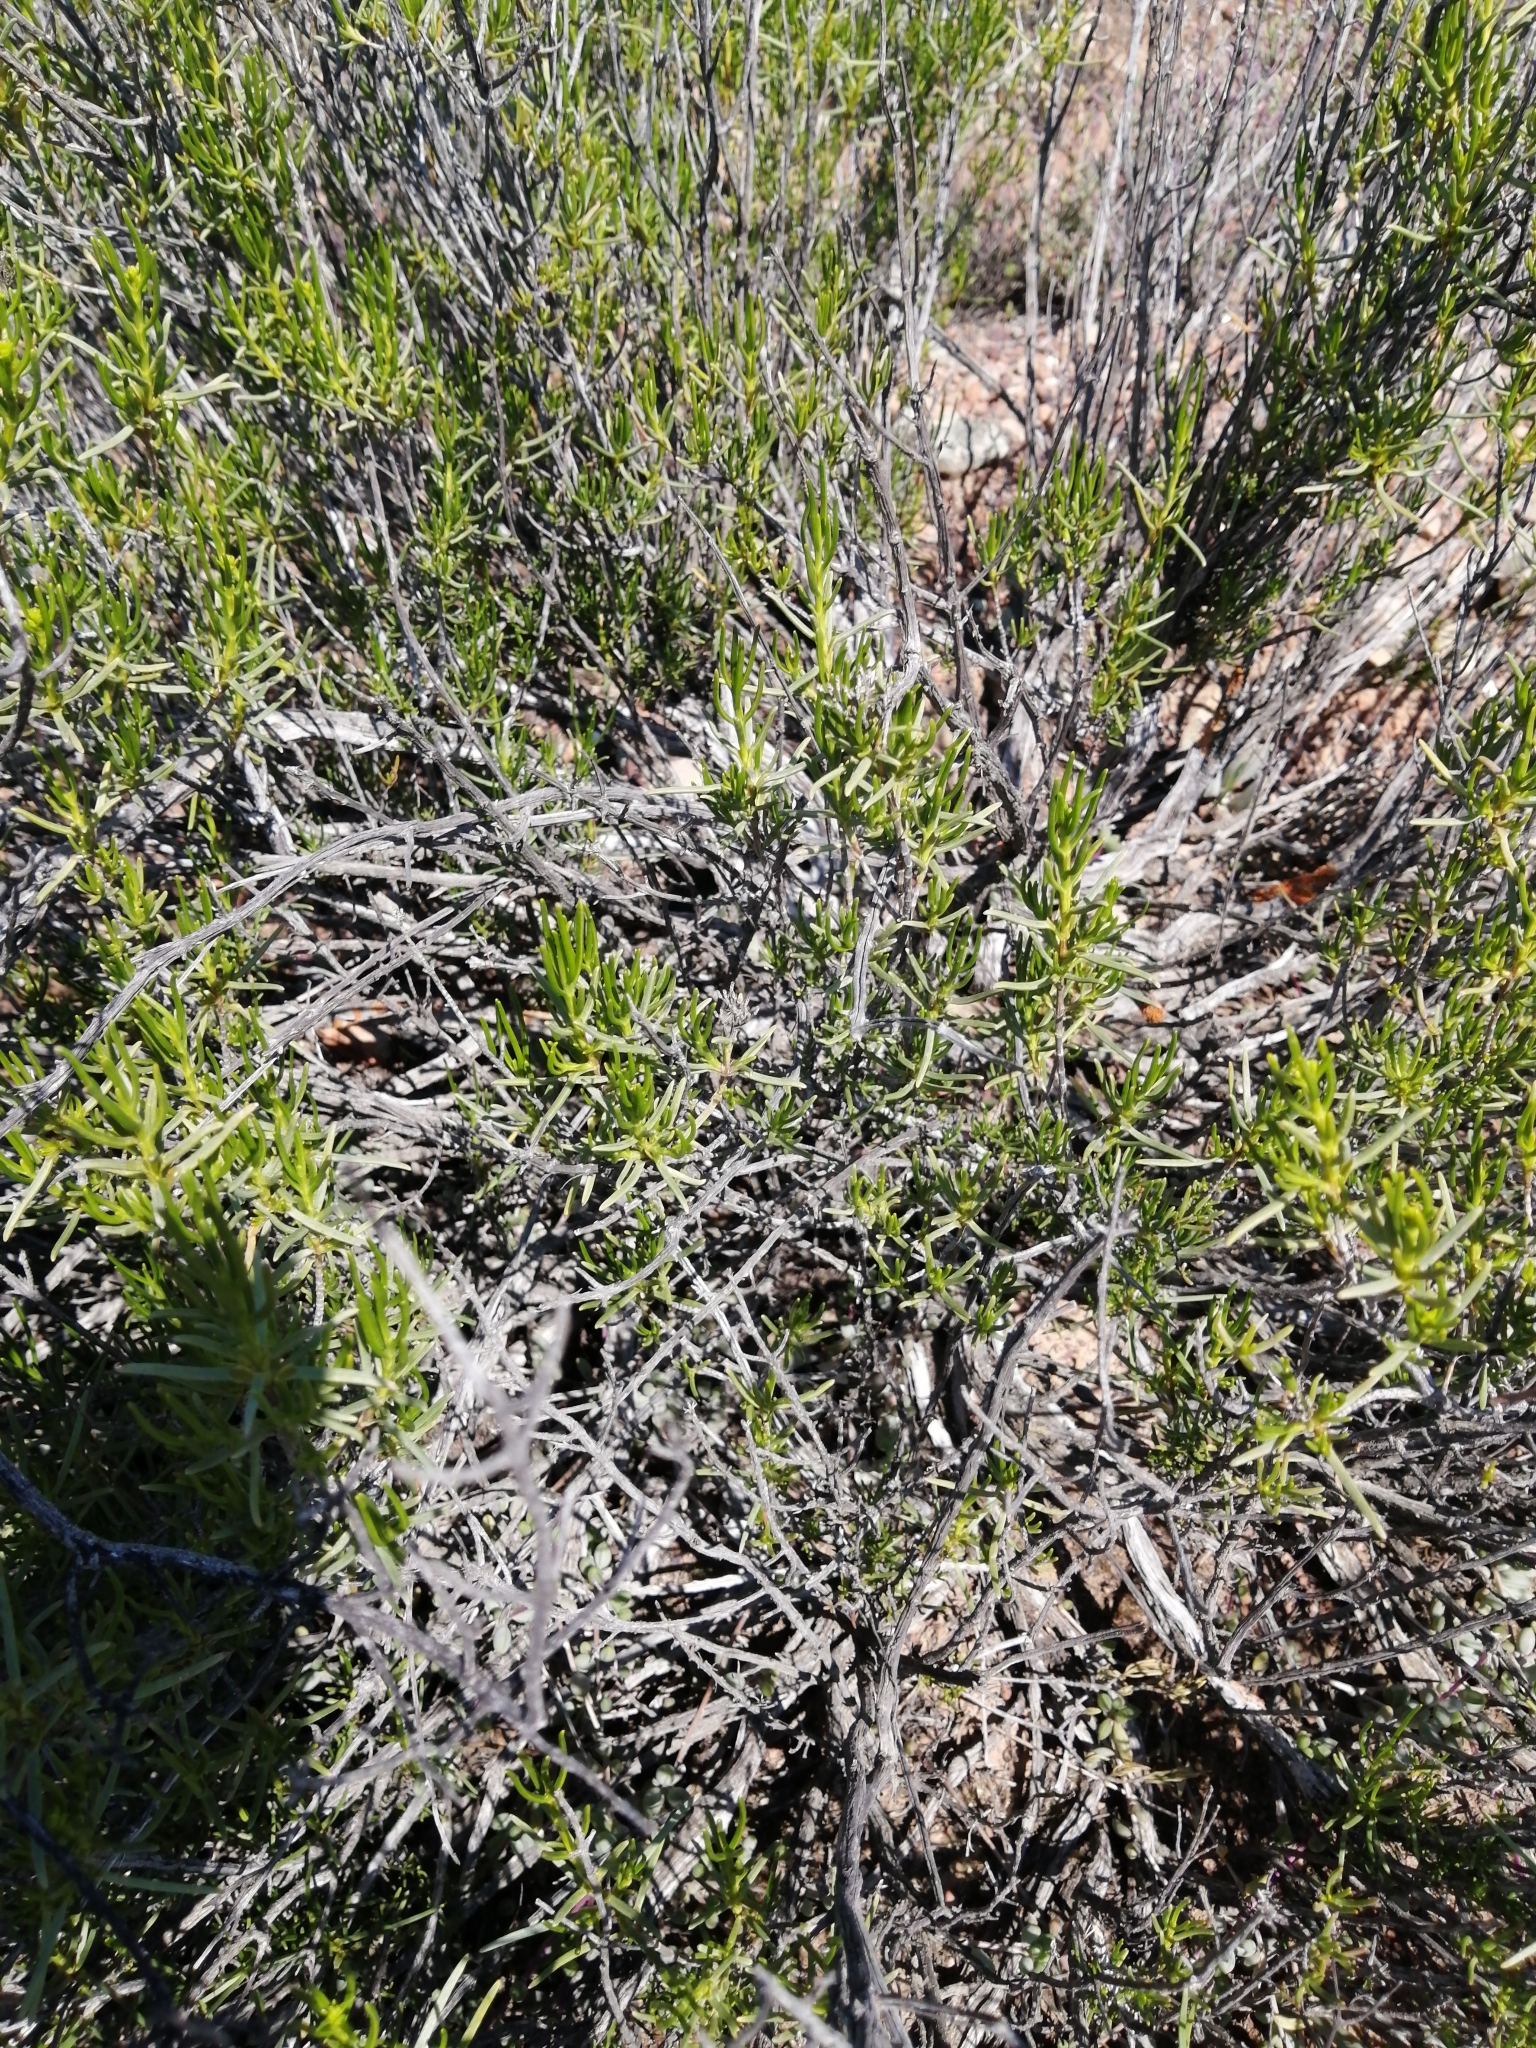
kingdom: Plantae
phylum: Tracheophyta
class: Magnoliopsida
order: Asterales
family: Asteraceae
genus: Pteronia
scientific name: Pteronia paniculata
